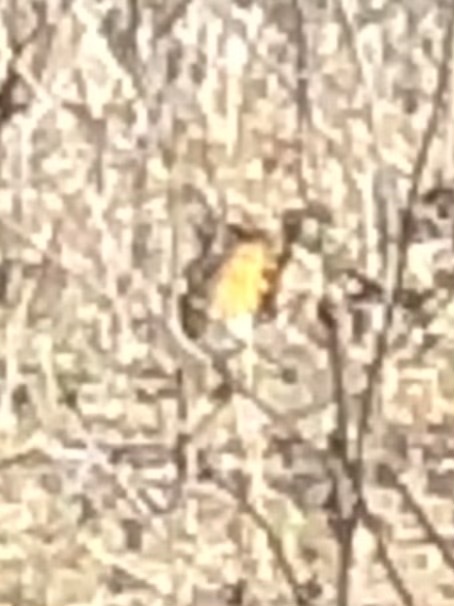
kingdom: Animalia
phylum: Chordata
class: Aves
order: Passeriformes
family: Muscicapidae
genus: Erithacus
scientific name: Erithacus rubecula
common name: European robin
